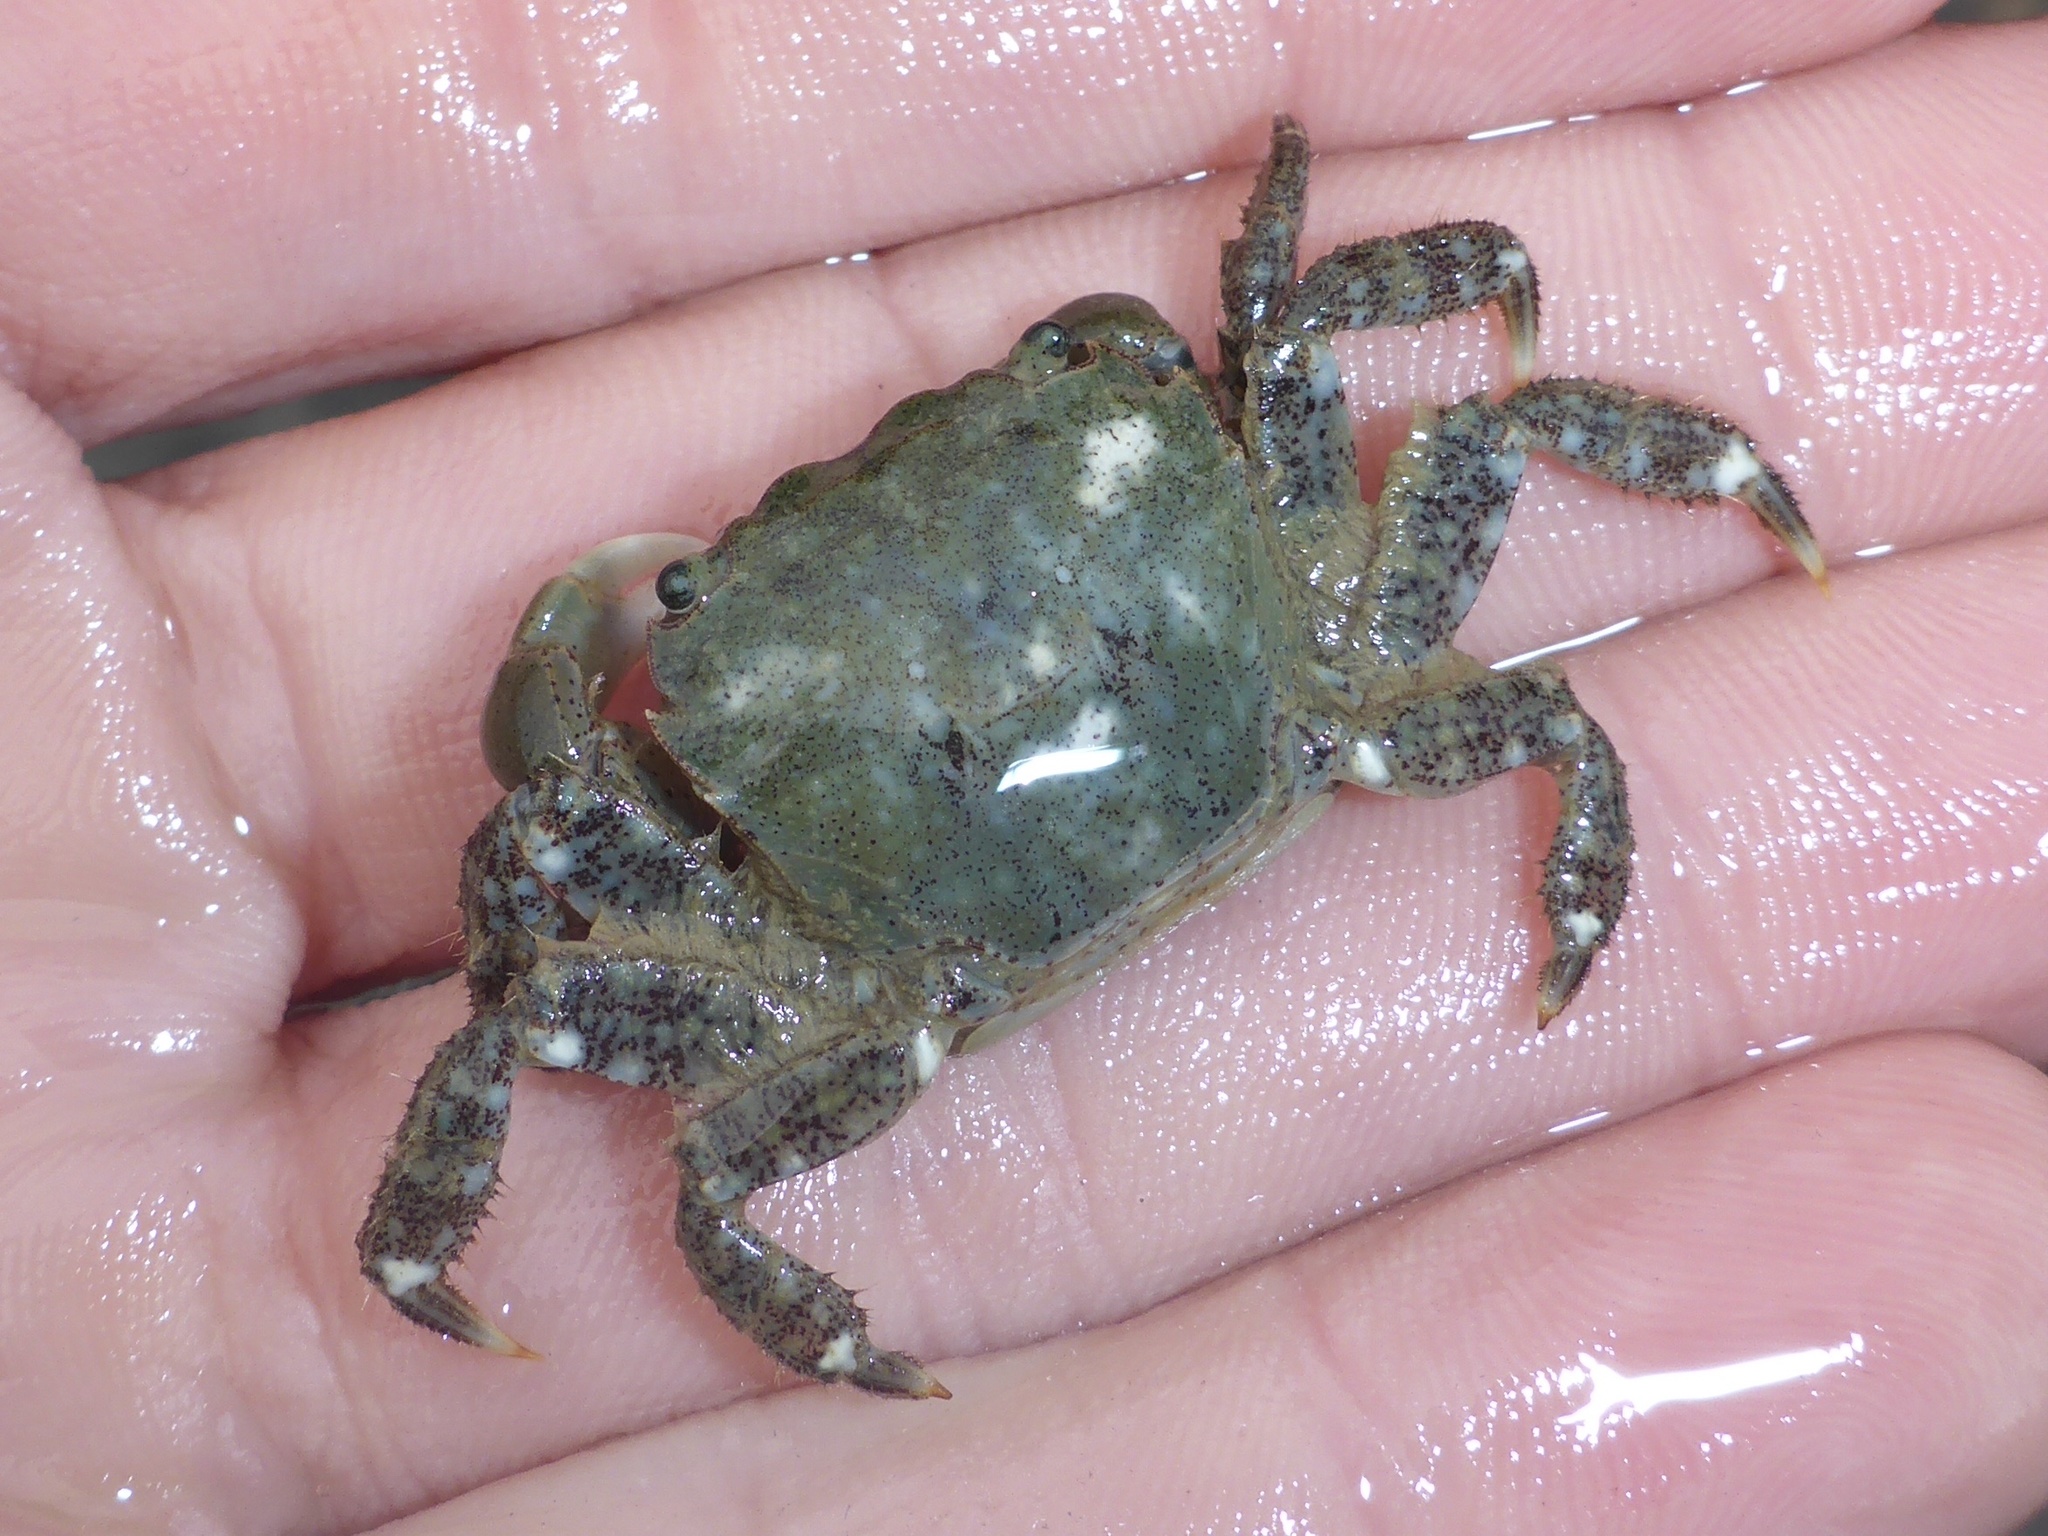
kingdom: Animalia
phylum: Arthropoda
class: Malacostraca
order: Decapoda
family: Varunidae
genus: Hemigrapsus
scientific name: Hemigrapsus oregonensis
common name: Yellow shore crab
